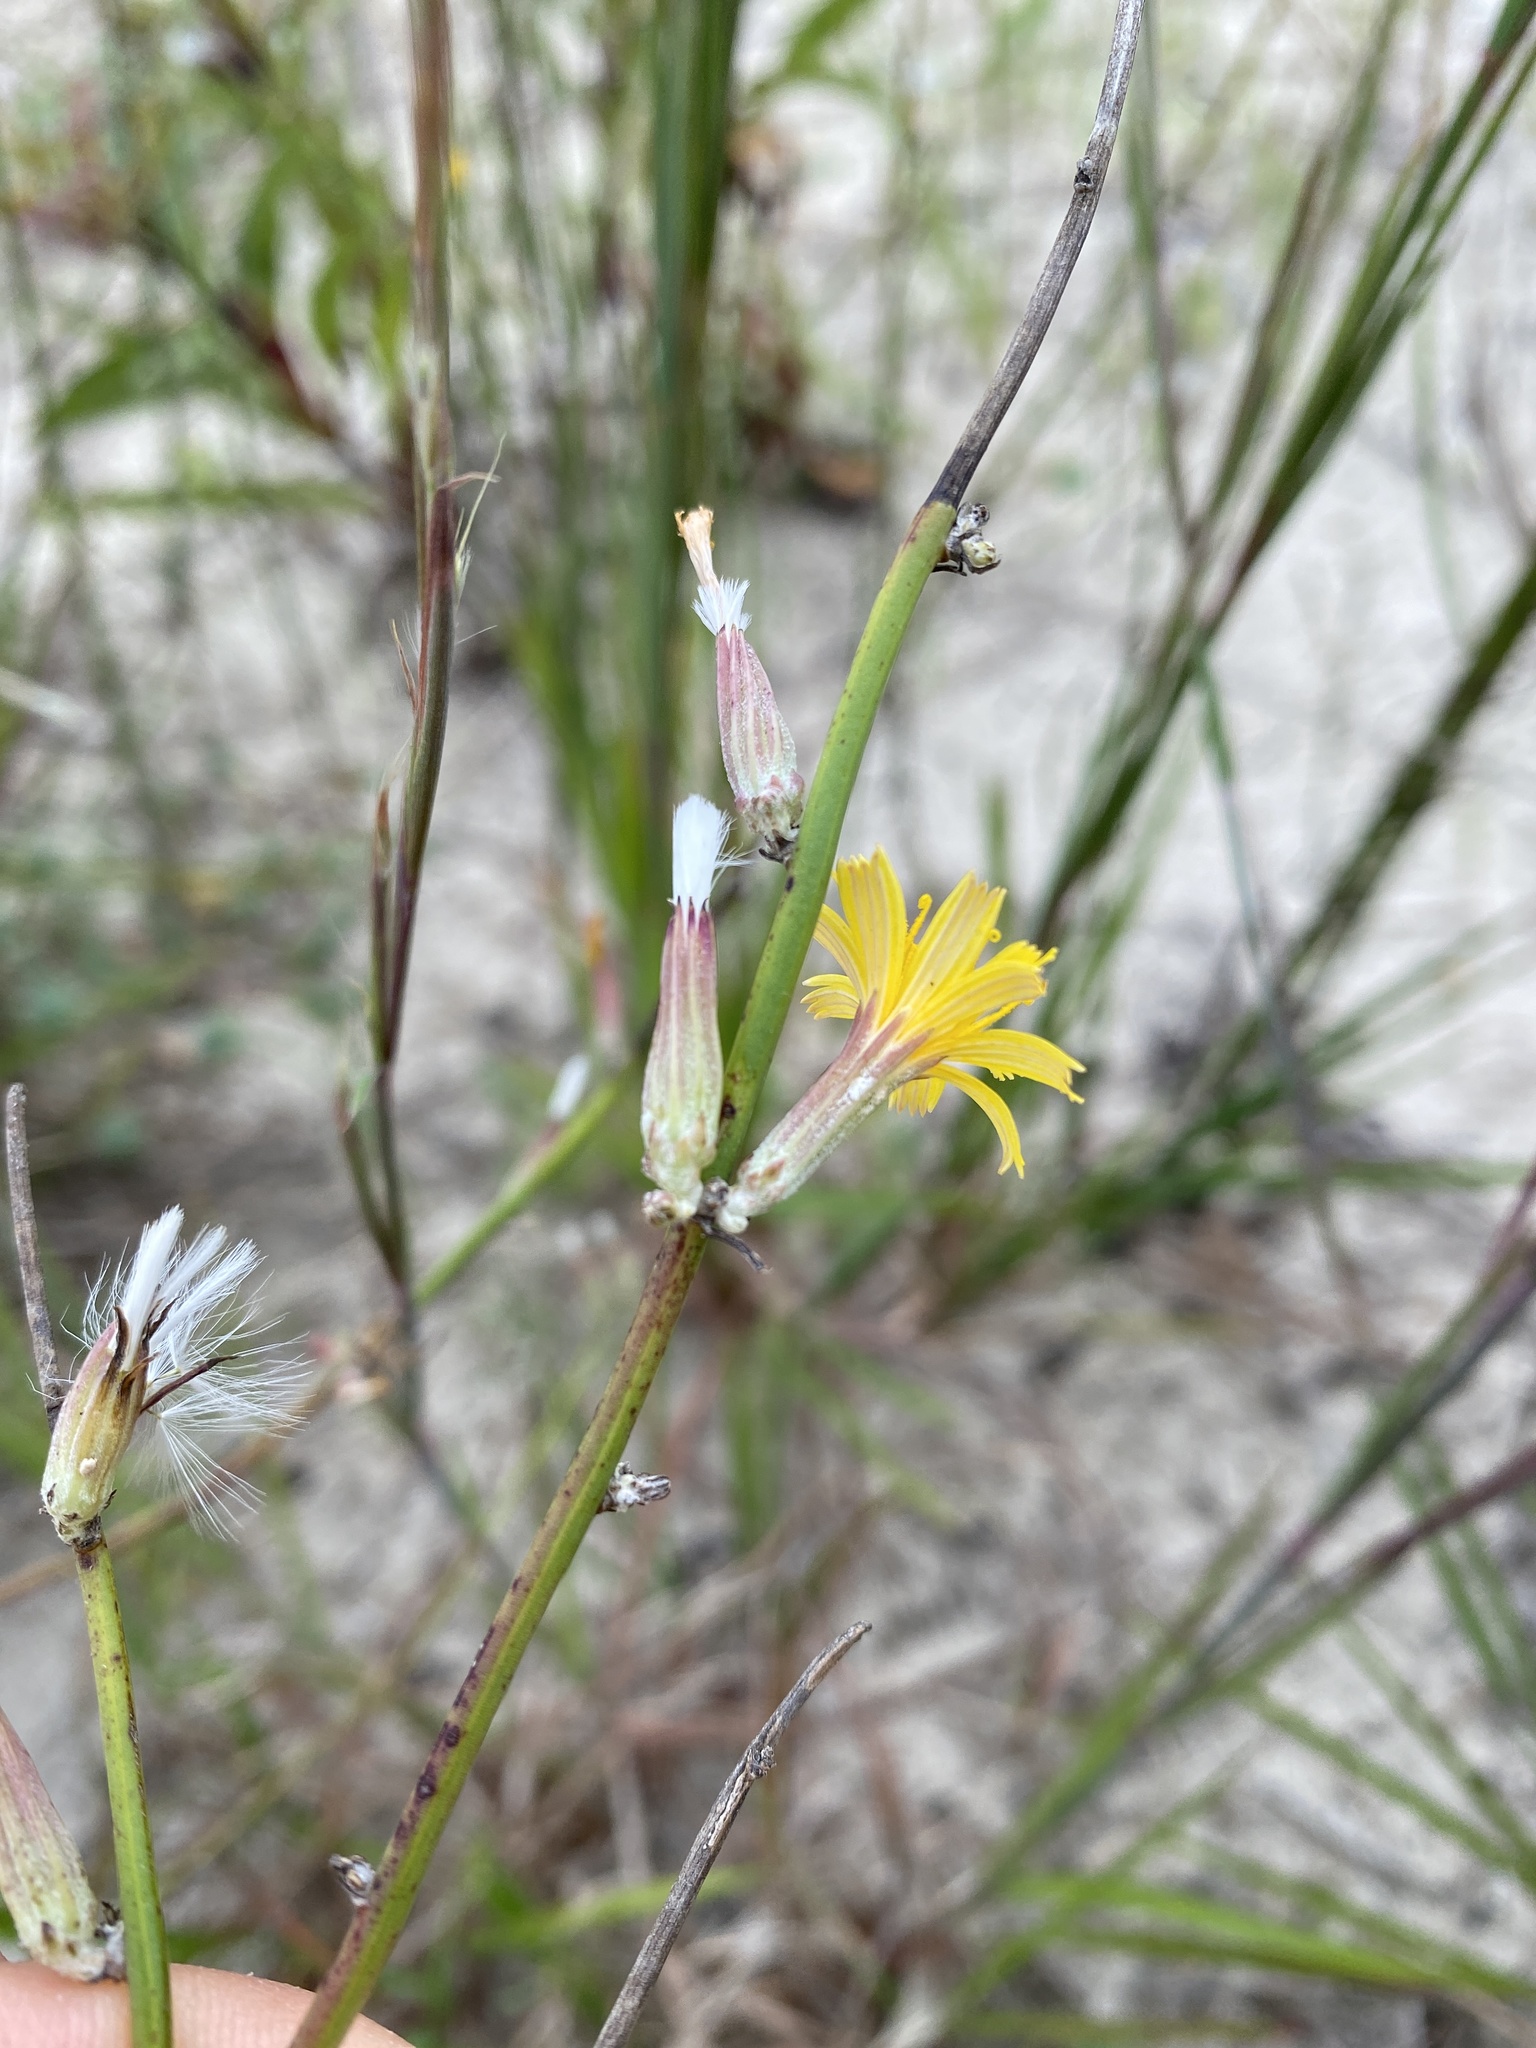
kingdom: Plantae
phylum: Tracheophyta
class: Magnoliopsida
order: Asterales
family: Asteraceae
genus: Chondrilla
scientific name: Chondrilla juncea
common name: Skeleton weed
